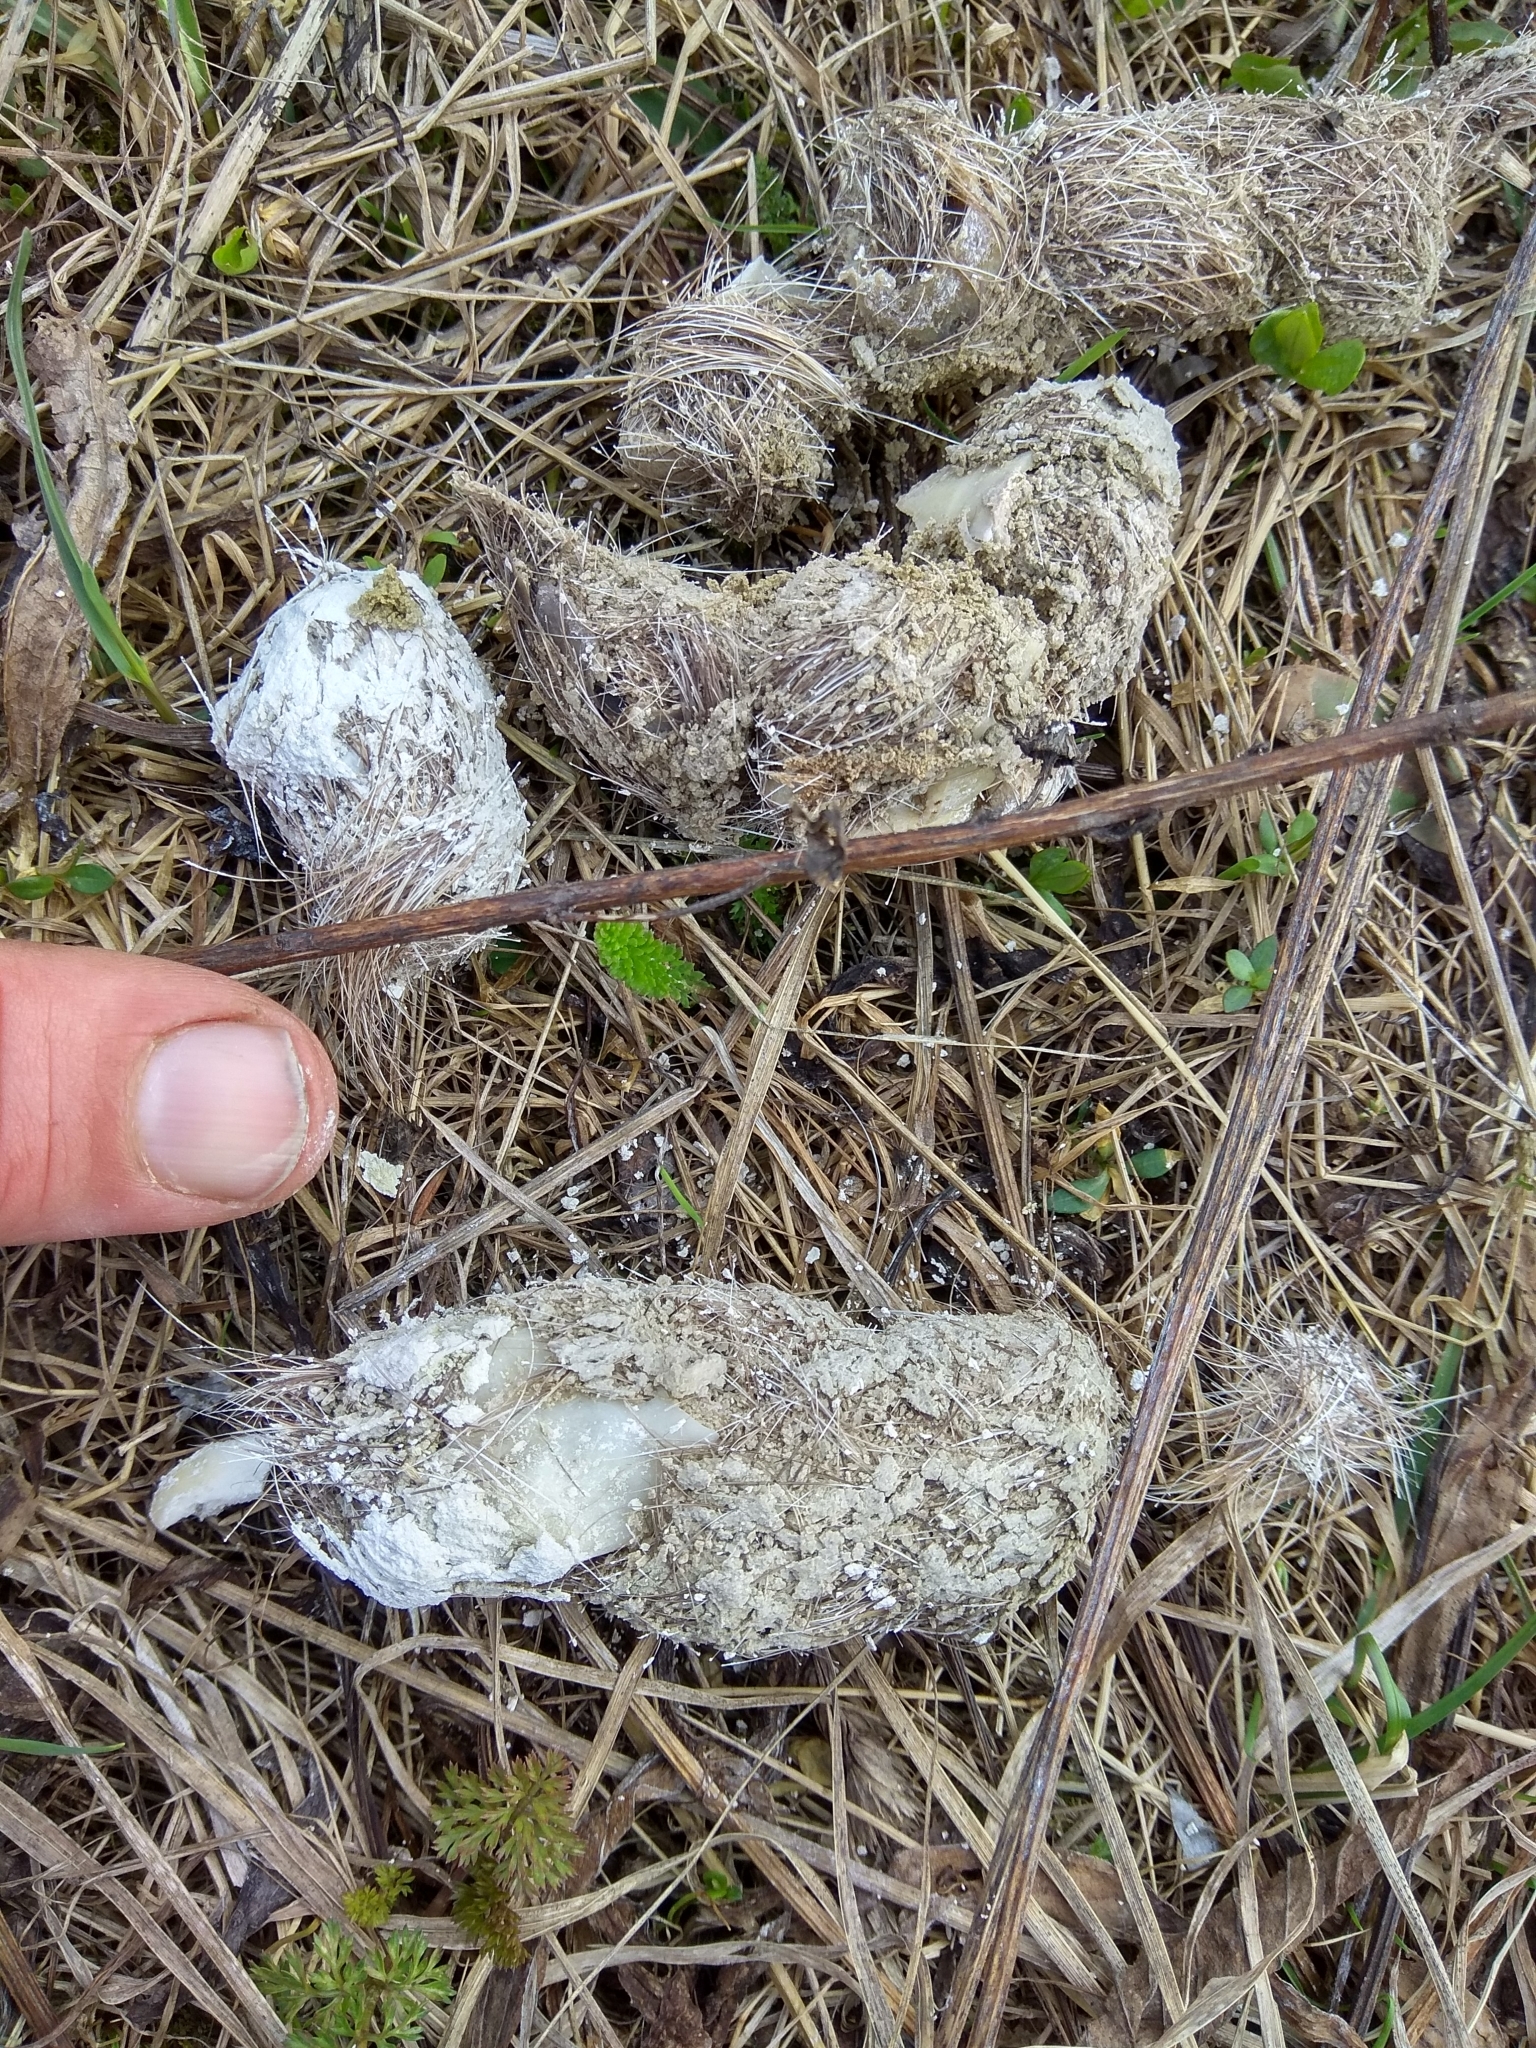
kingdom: Animalia
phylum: Chordata
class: Mammalia
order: Carnivora
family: Canidae
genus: Canis
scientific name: Canis lupus
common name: Gray wolf
